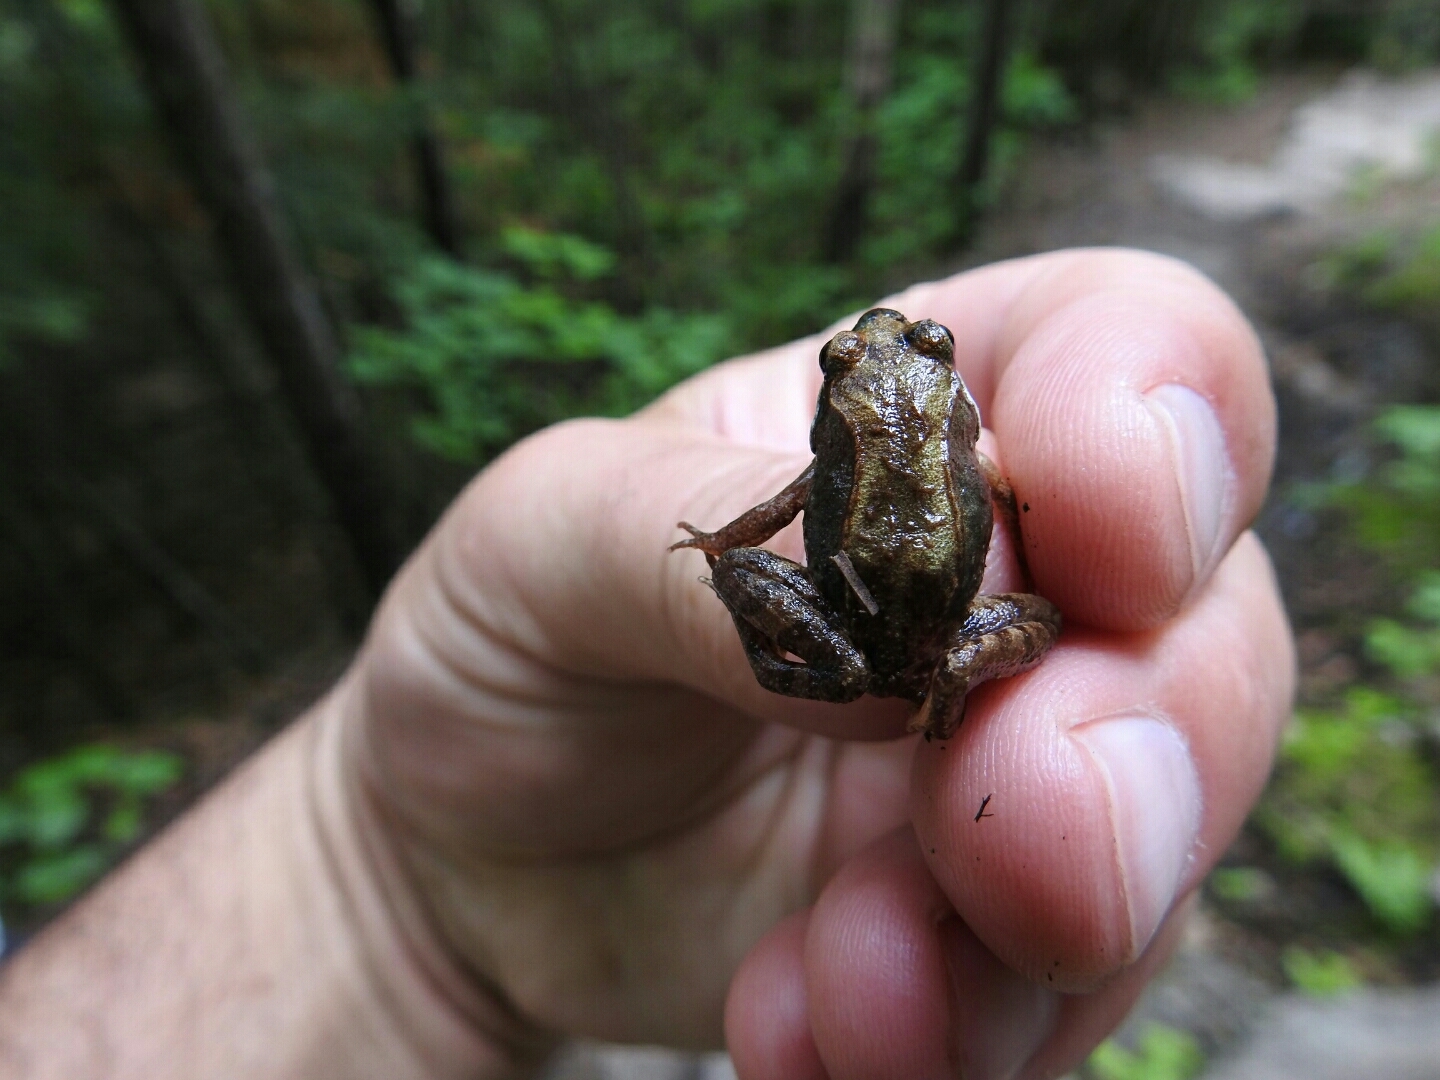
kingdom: Animalia
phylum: Chordata
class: Amphibia
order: Anura
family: Ranidae
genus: Lithobates
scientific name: Lithobates sylvaticus
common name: Wood frog
